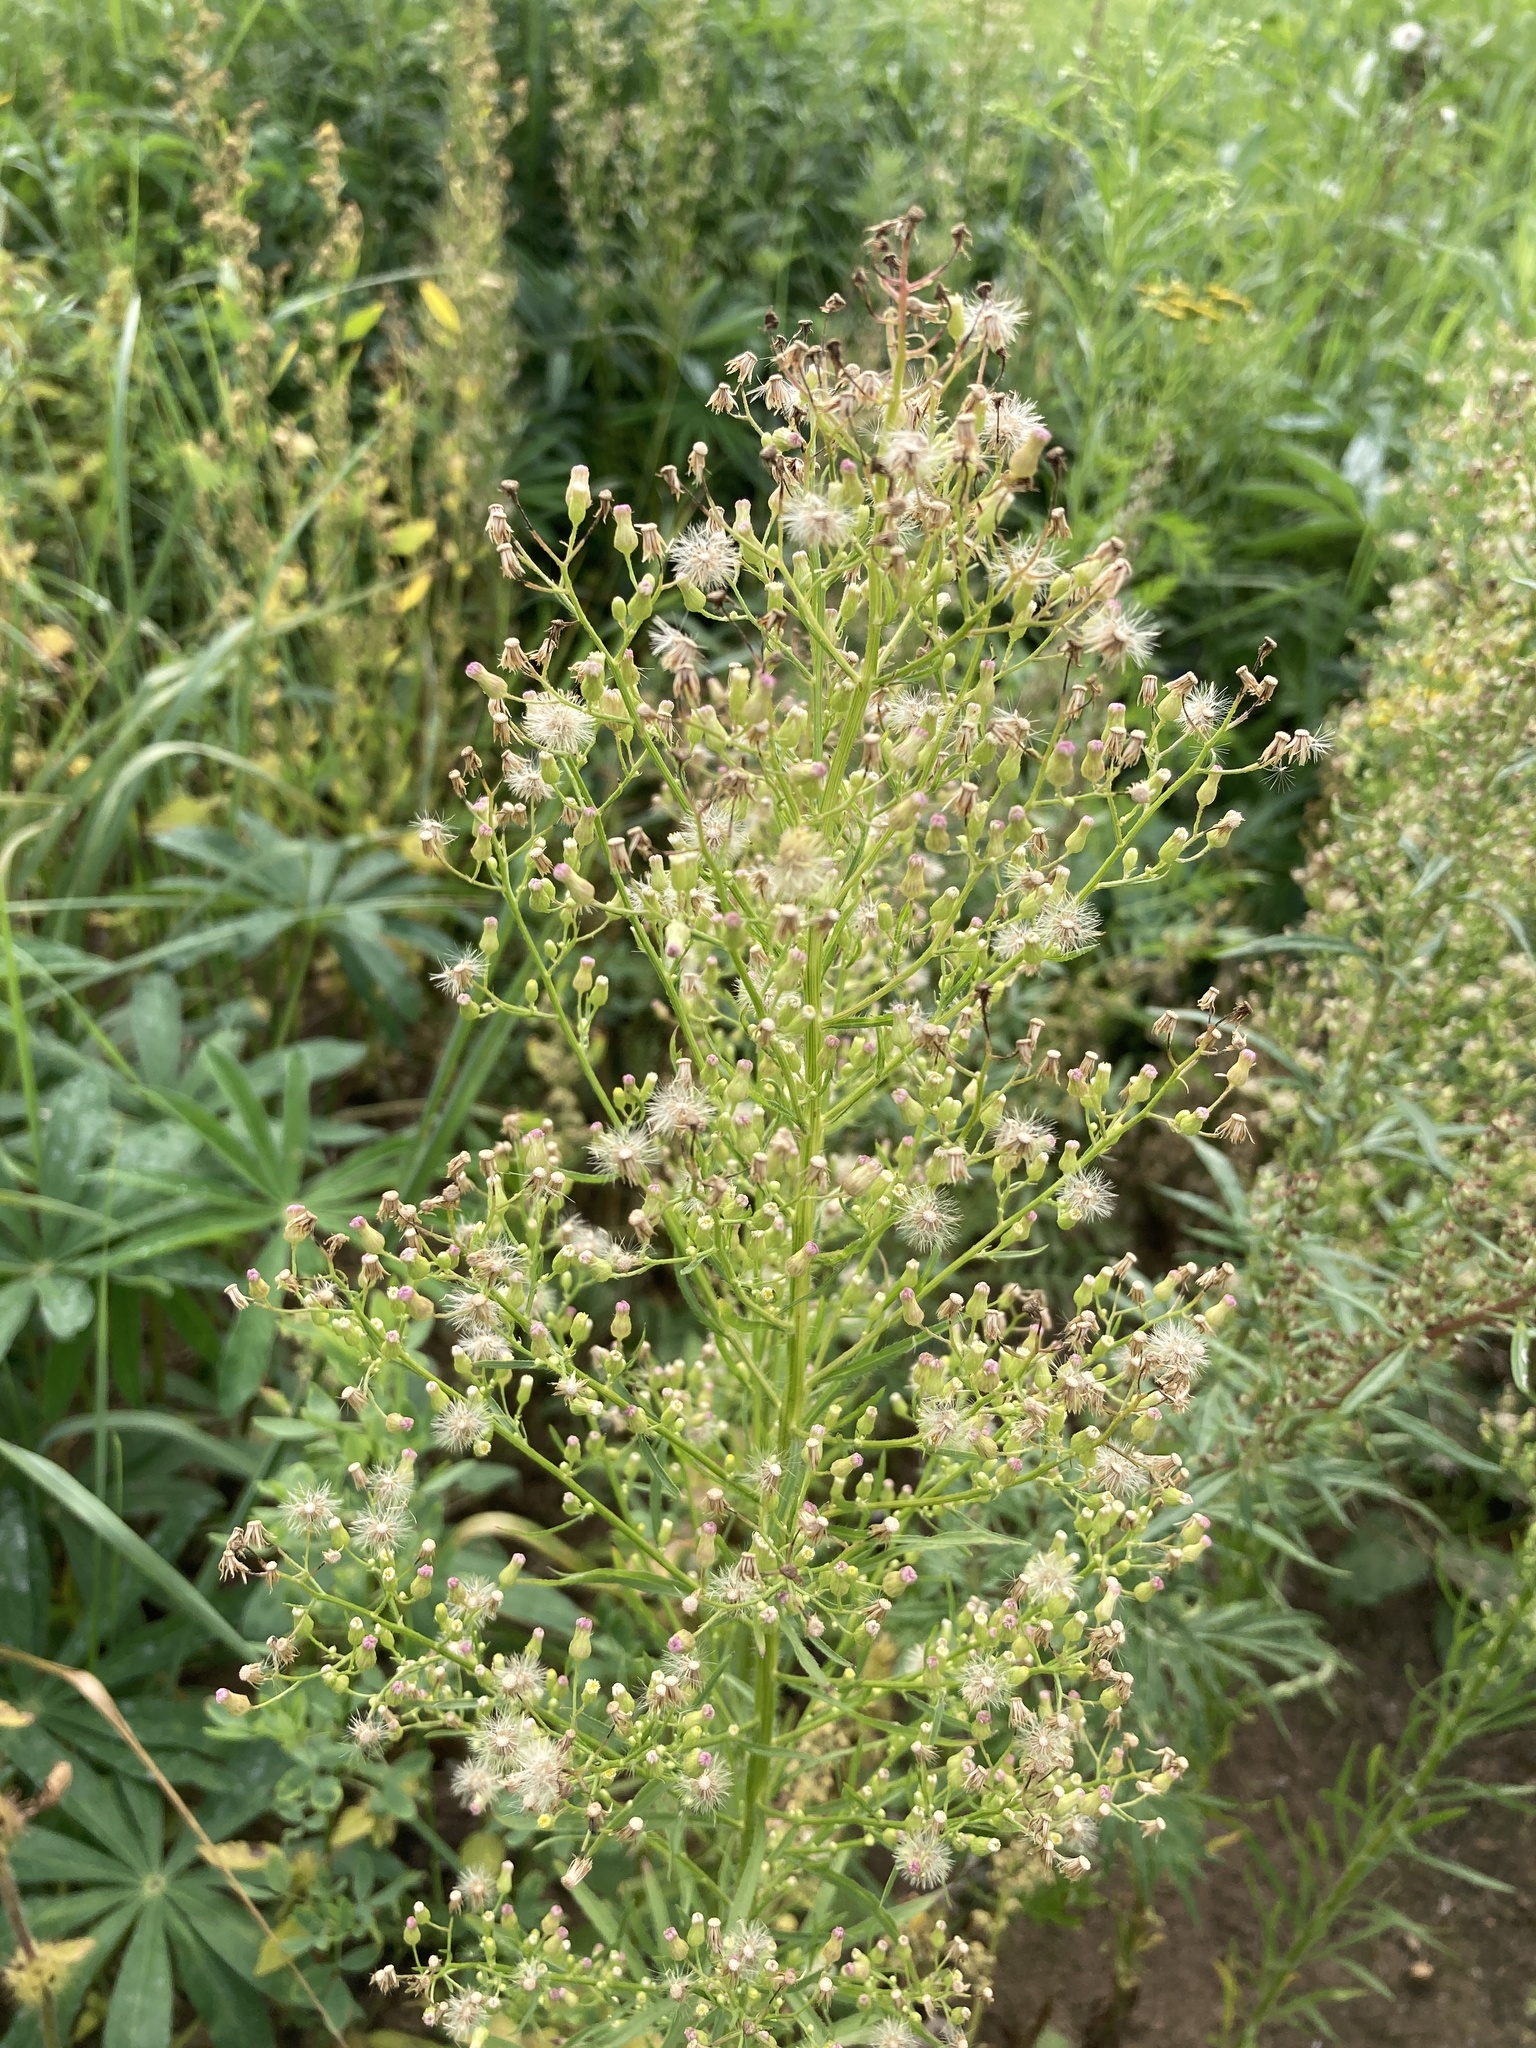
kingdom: Plantae
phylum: Tracheophyta
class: Magnoliopsida
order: Asterales
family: Asteraceae
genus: Erigeron
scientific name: Erigeron canadensis
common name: Canadian fleabane
